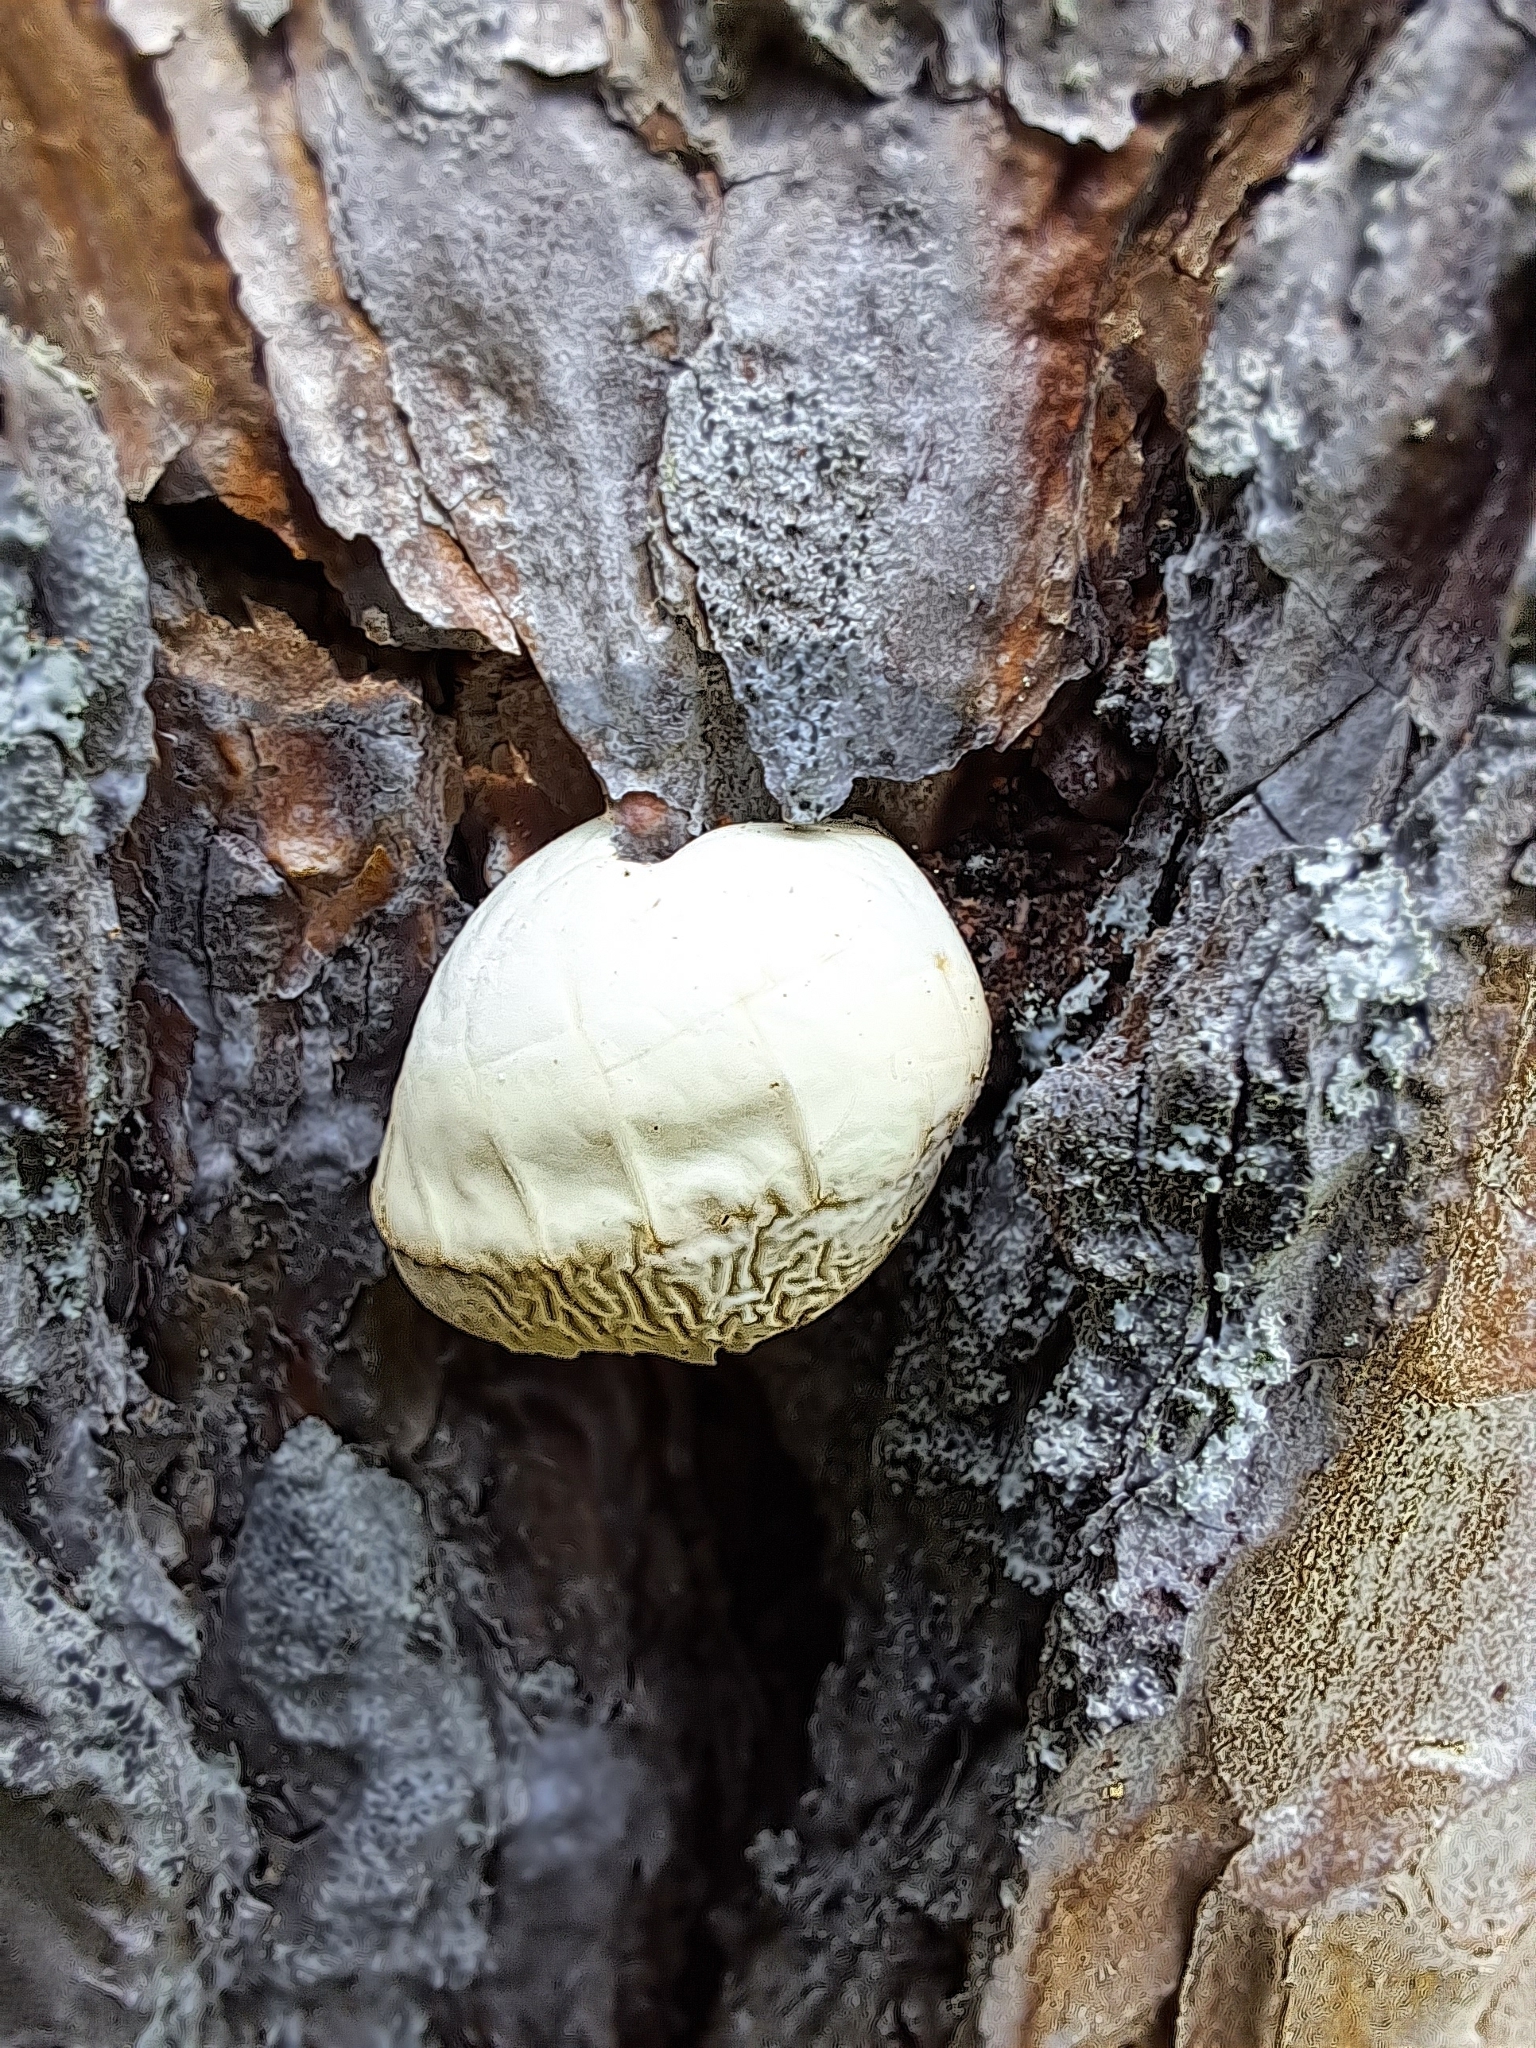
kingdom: Fungi
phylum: Basidiomycota
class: Agaricomycetes
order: Polyporales
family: Polyporaceae
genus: Cryptoporus
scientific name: Cryptoporus volvatus
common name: Veiled polypore
